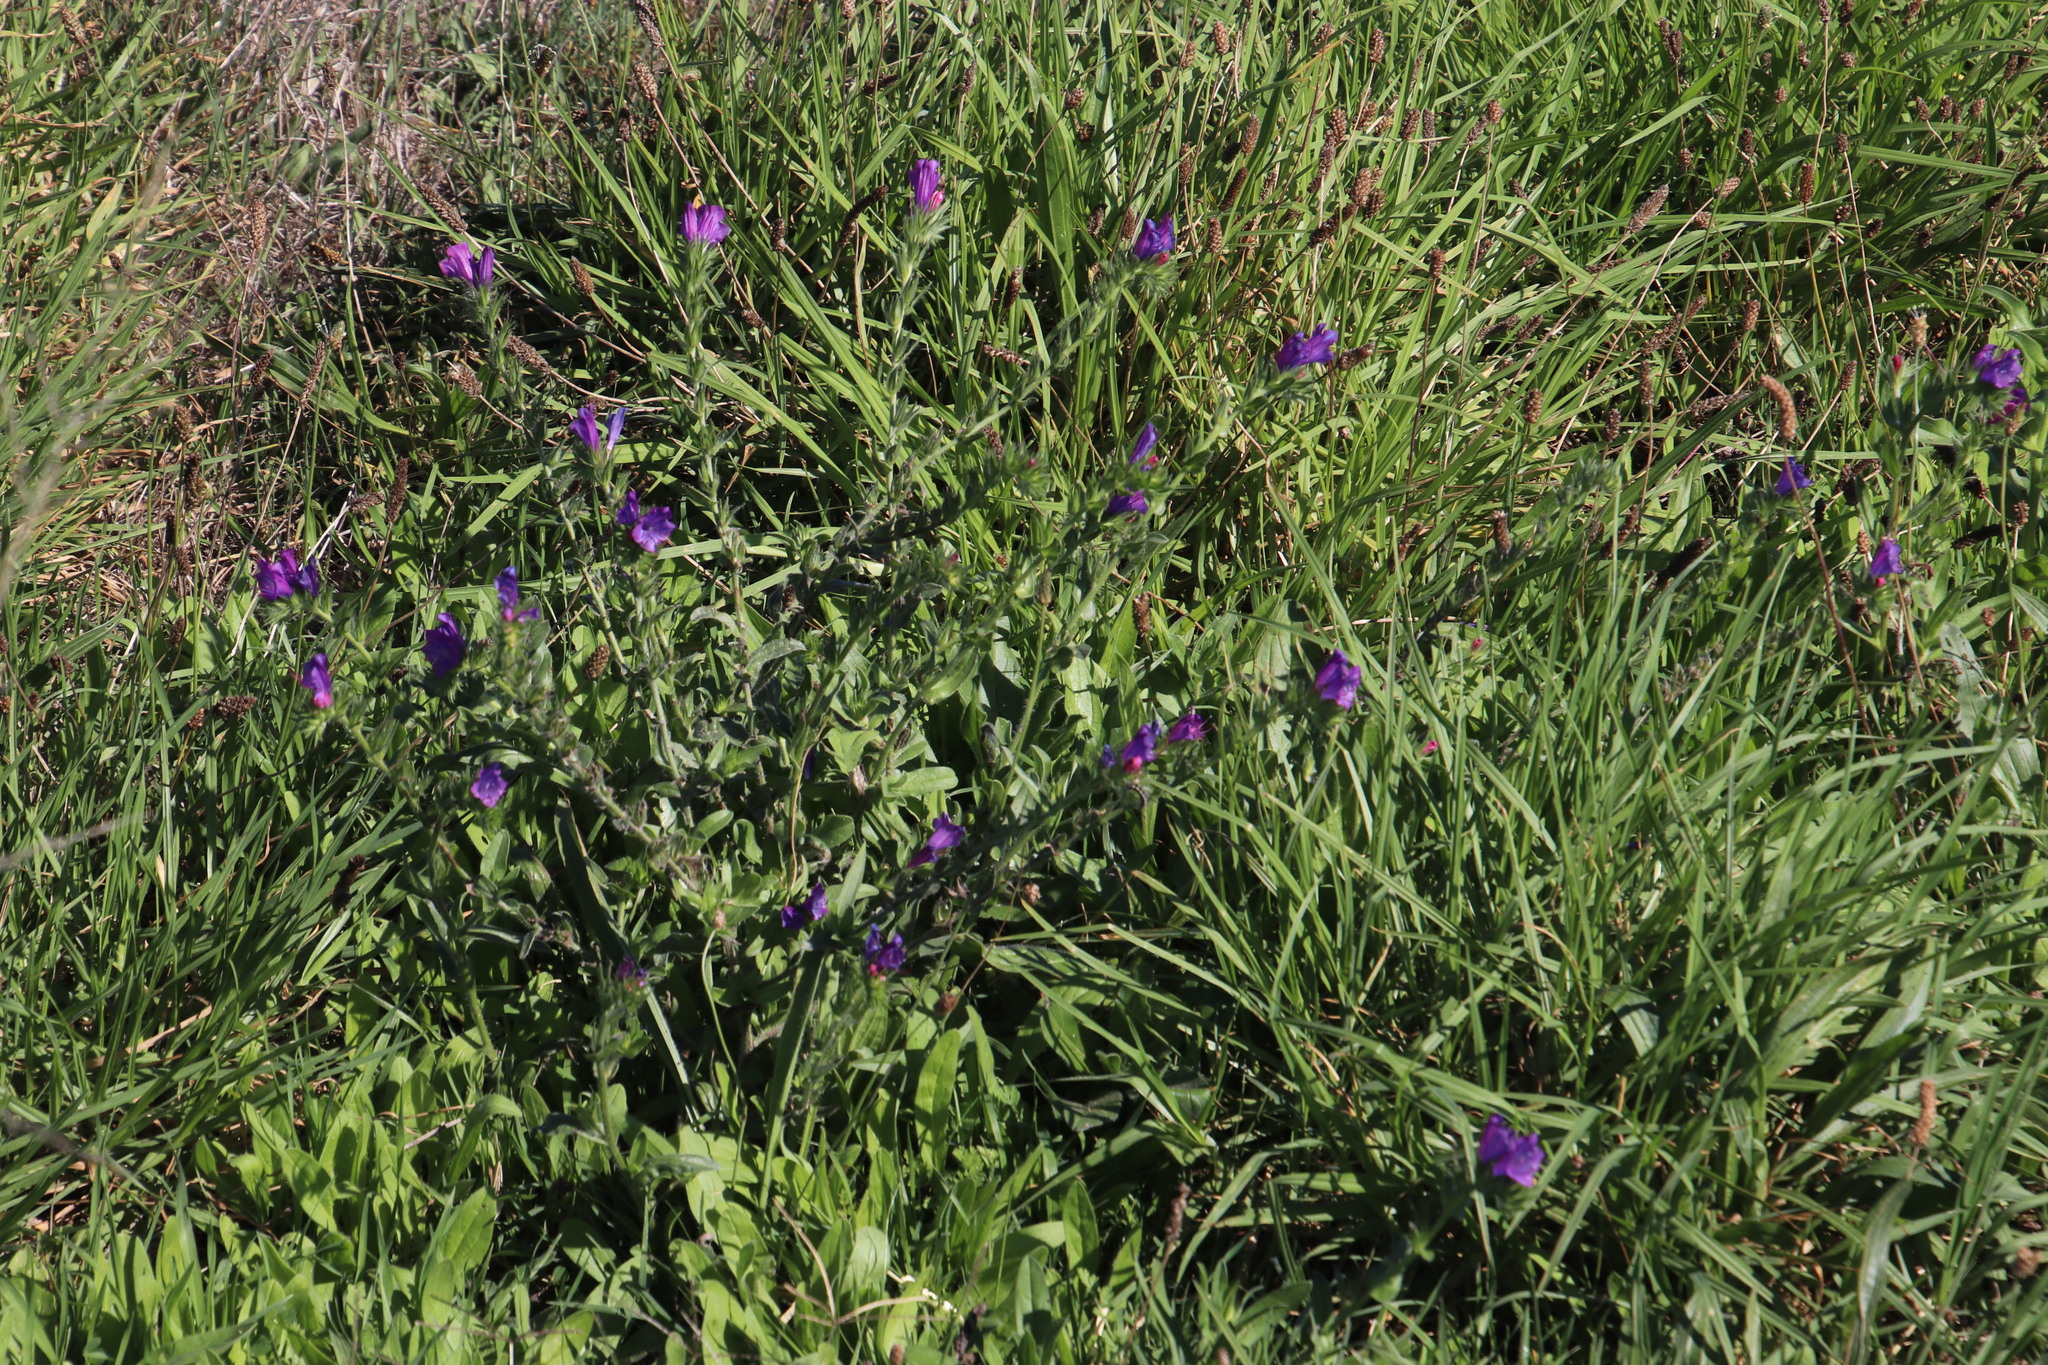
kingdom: Plantae
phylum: Tracheophyta
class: Magnoliopsida
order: Boraginales
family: Boraginaceae
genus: Echium
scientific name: Echium plantagineum
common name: Purple viper's-bugloss
